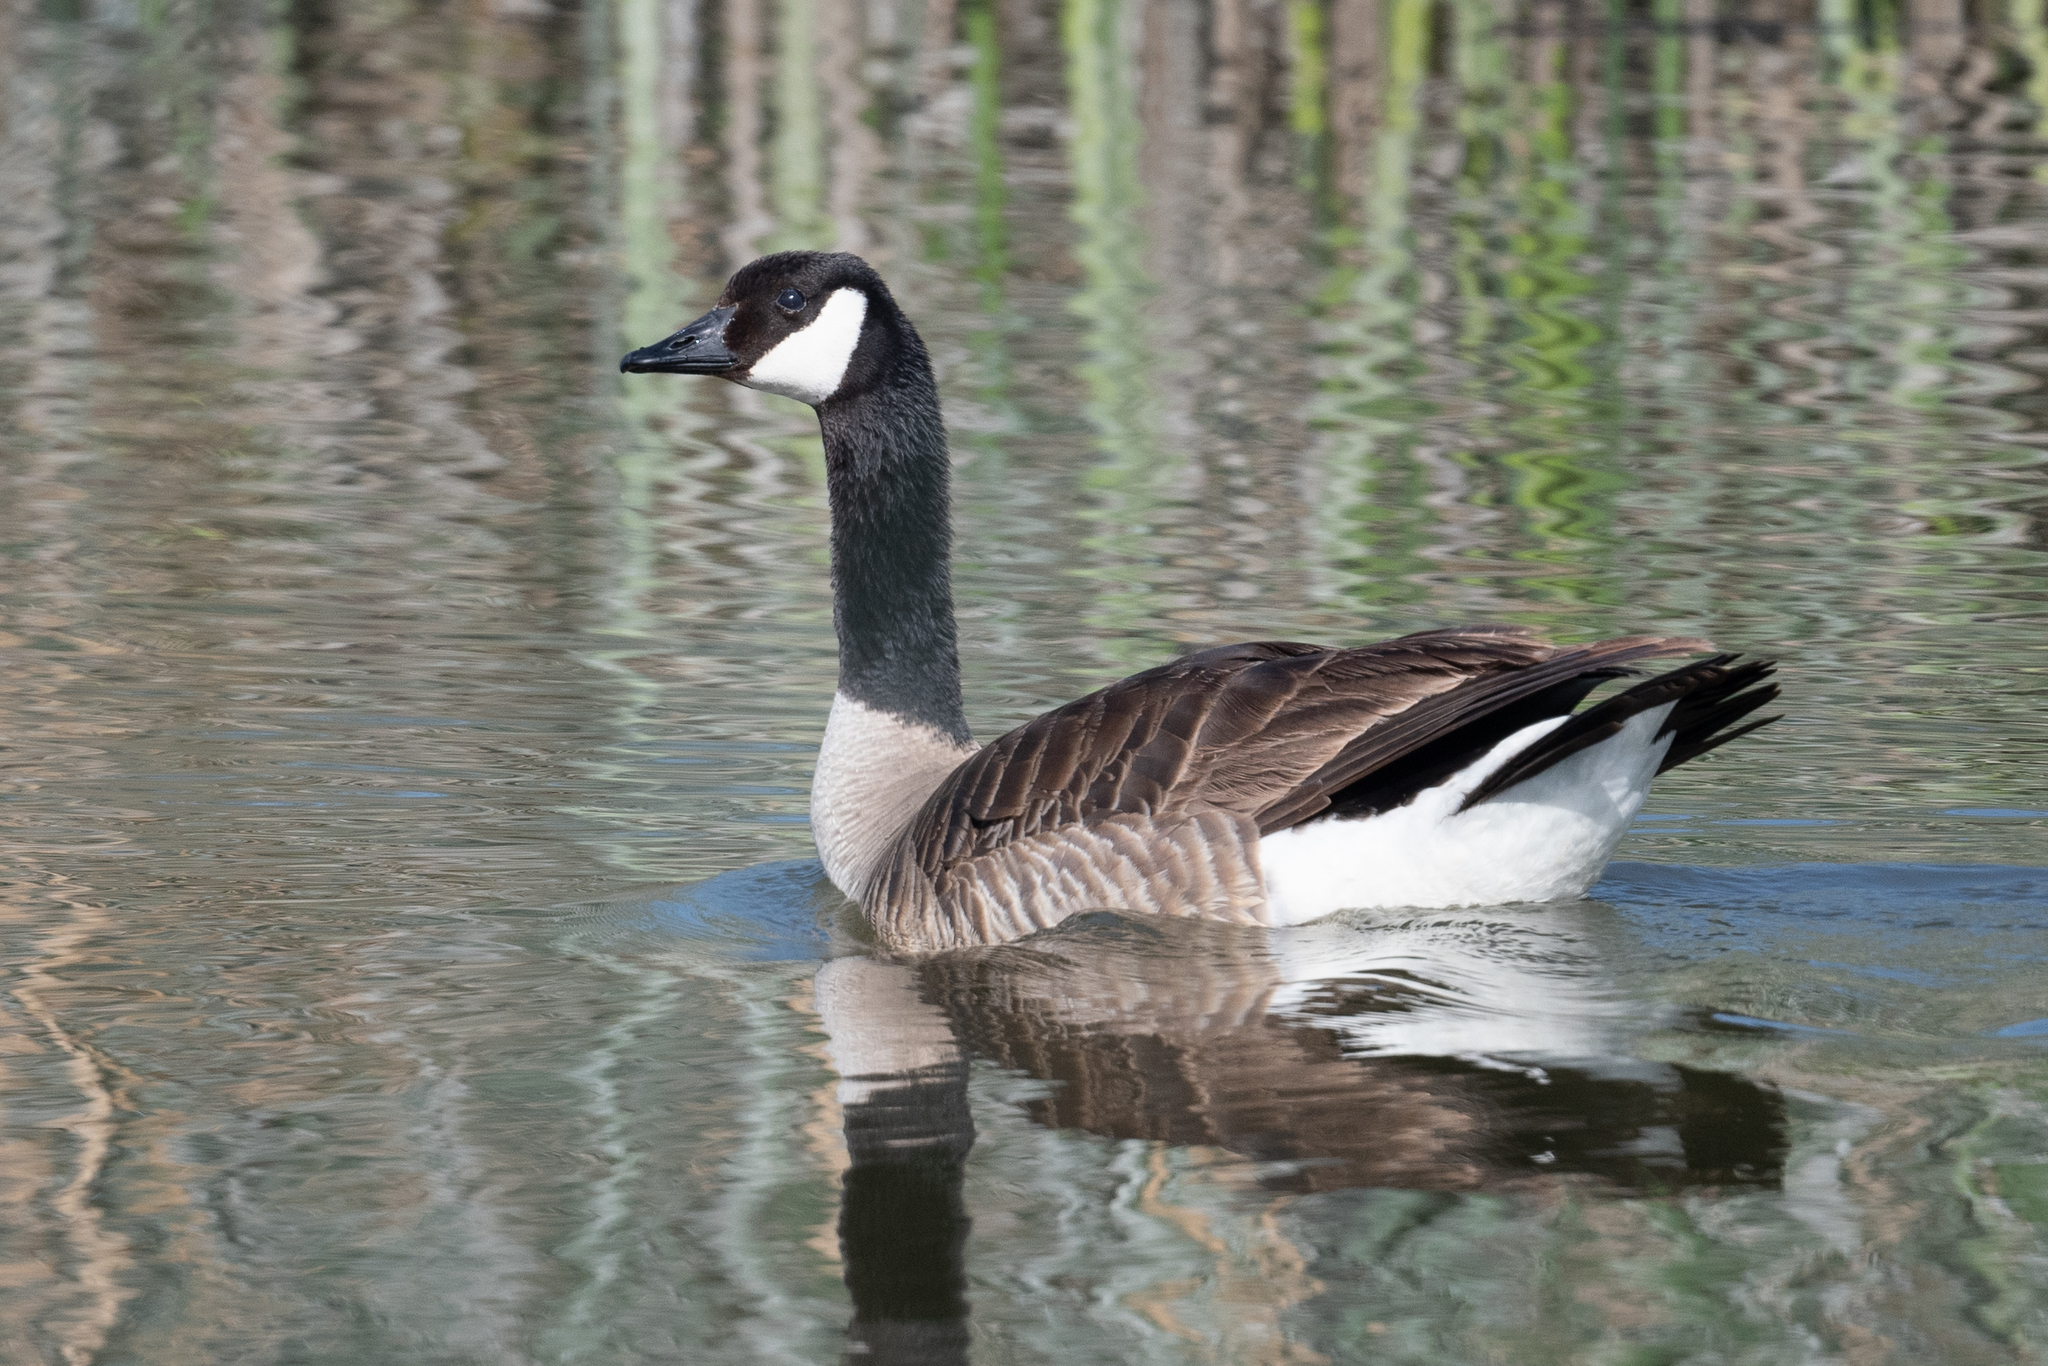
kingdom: Animalia
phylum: Chordata
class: Aves
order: Anseriformes
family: Anatidae
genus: Branta
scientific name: Branta canadensis
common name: Canada goose
